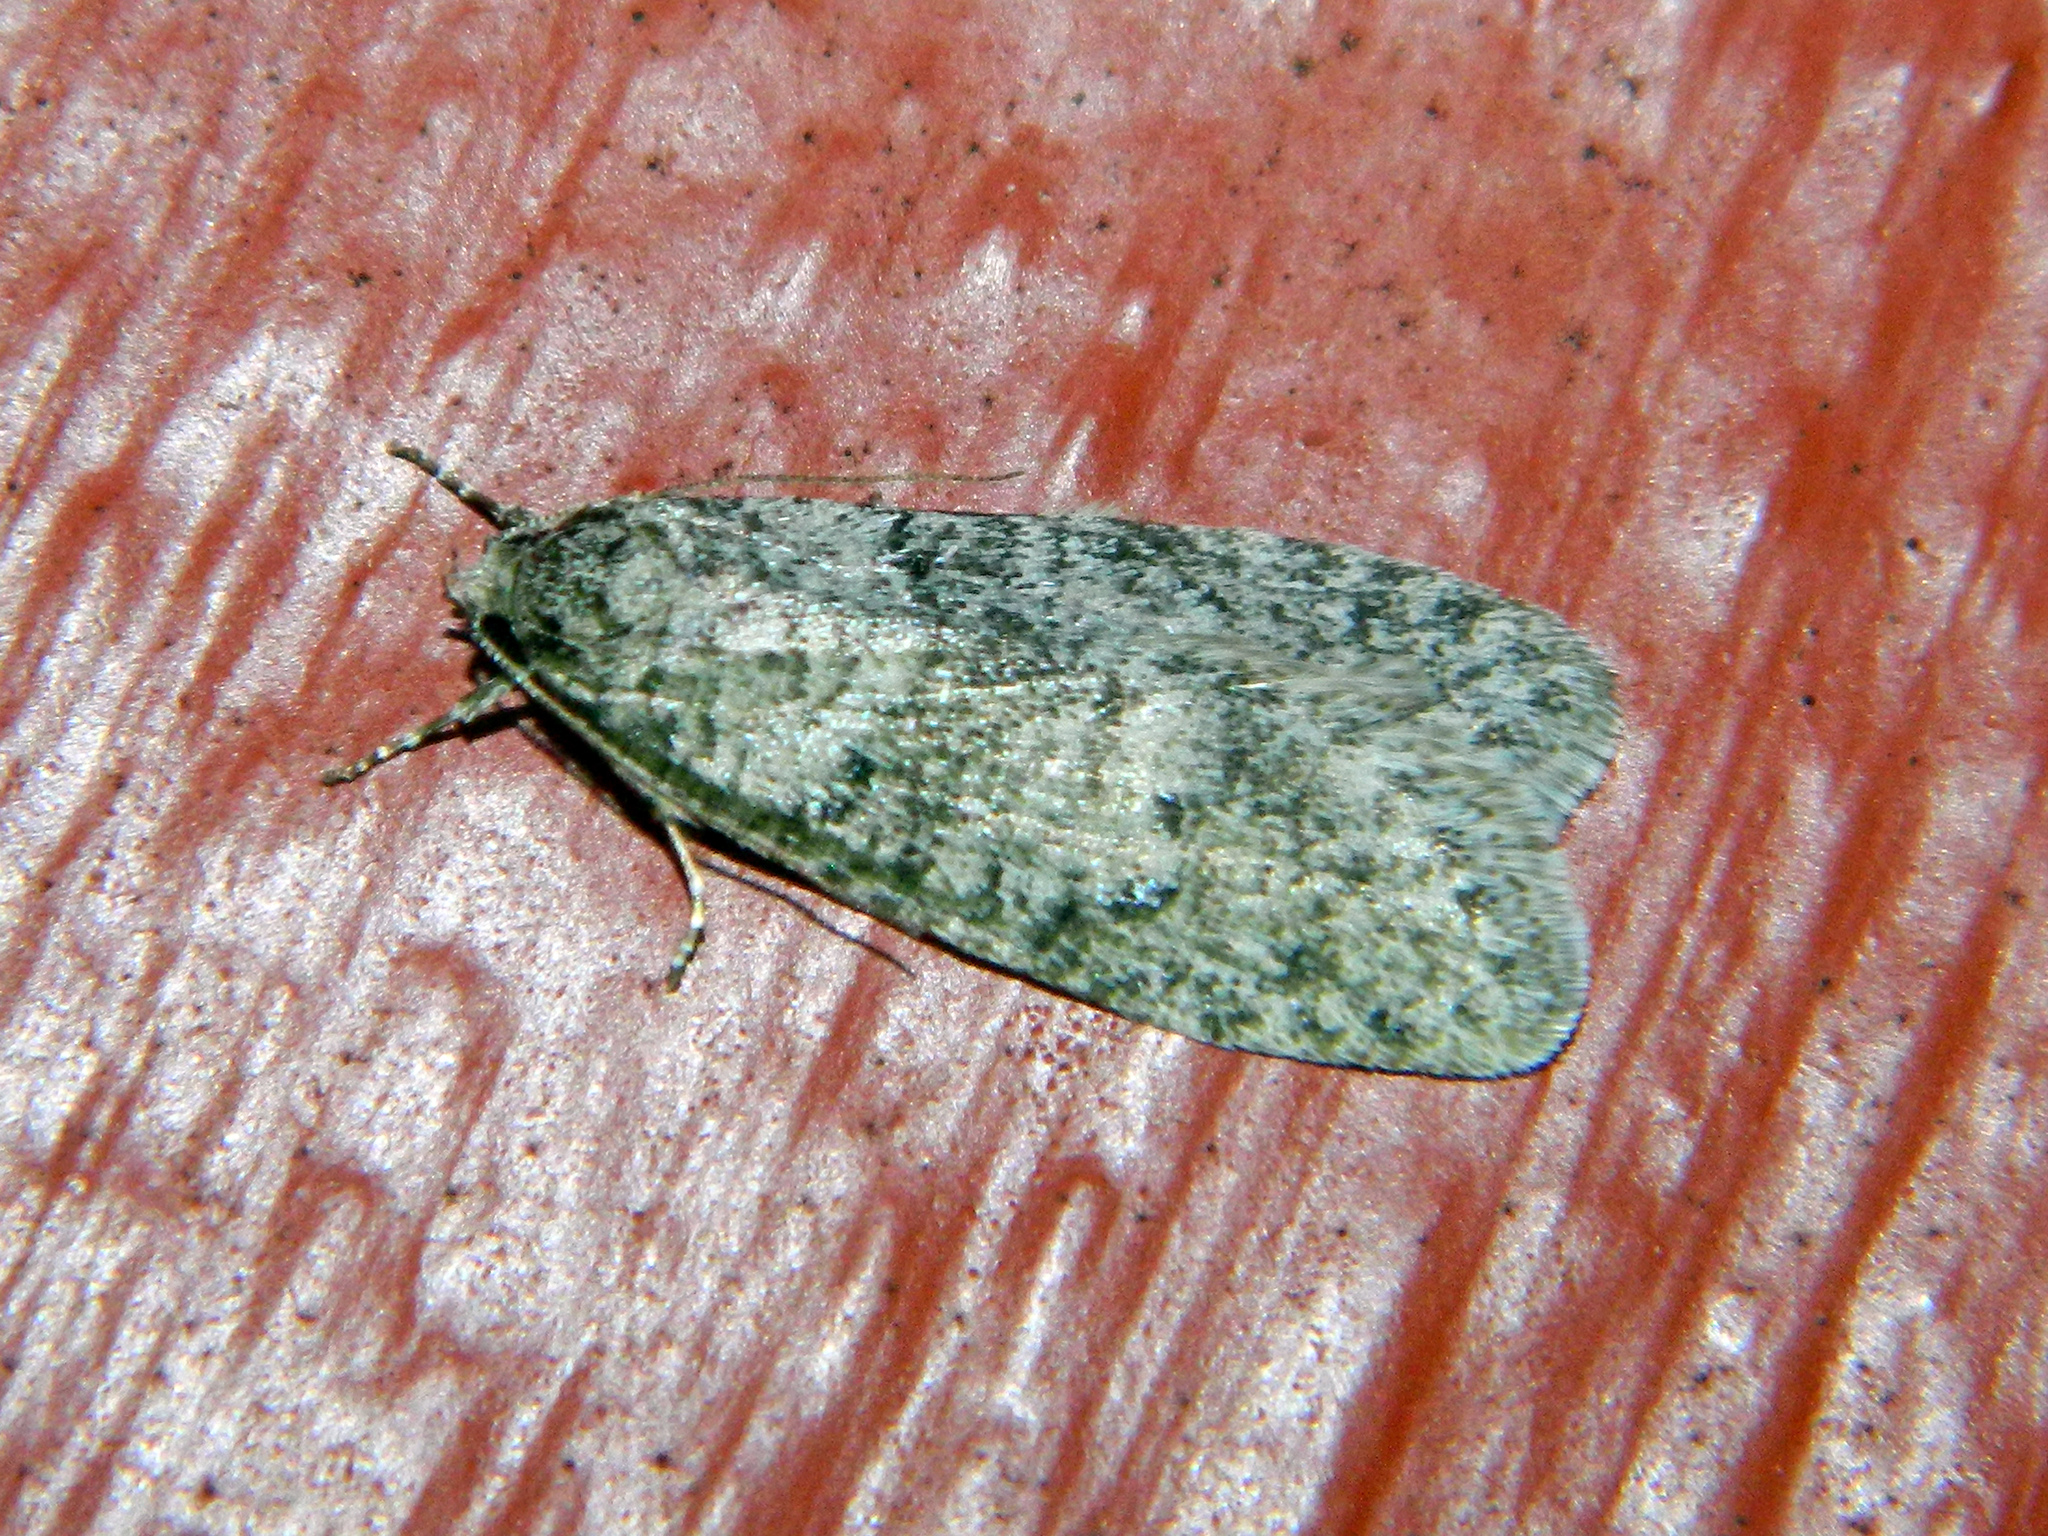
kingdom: Animalia
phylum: Arthropoda
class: Insecta
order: Lepidoptera
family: Depressariidae
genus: Semioscopis
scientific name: Semioscopis inornata
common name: Poplar micromoth
